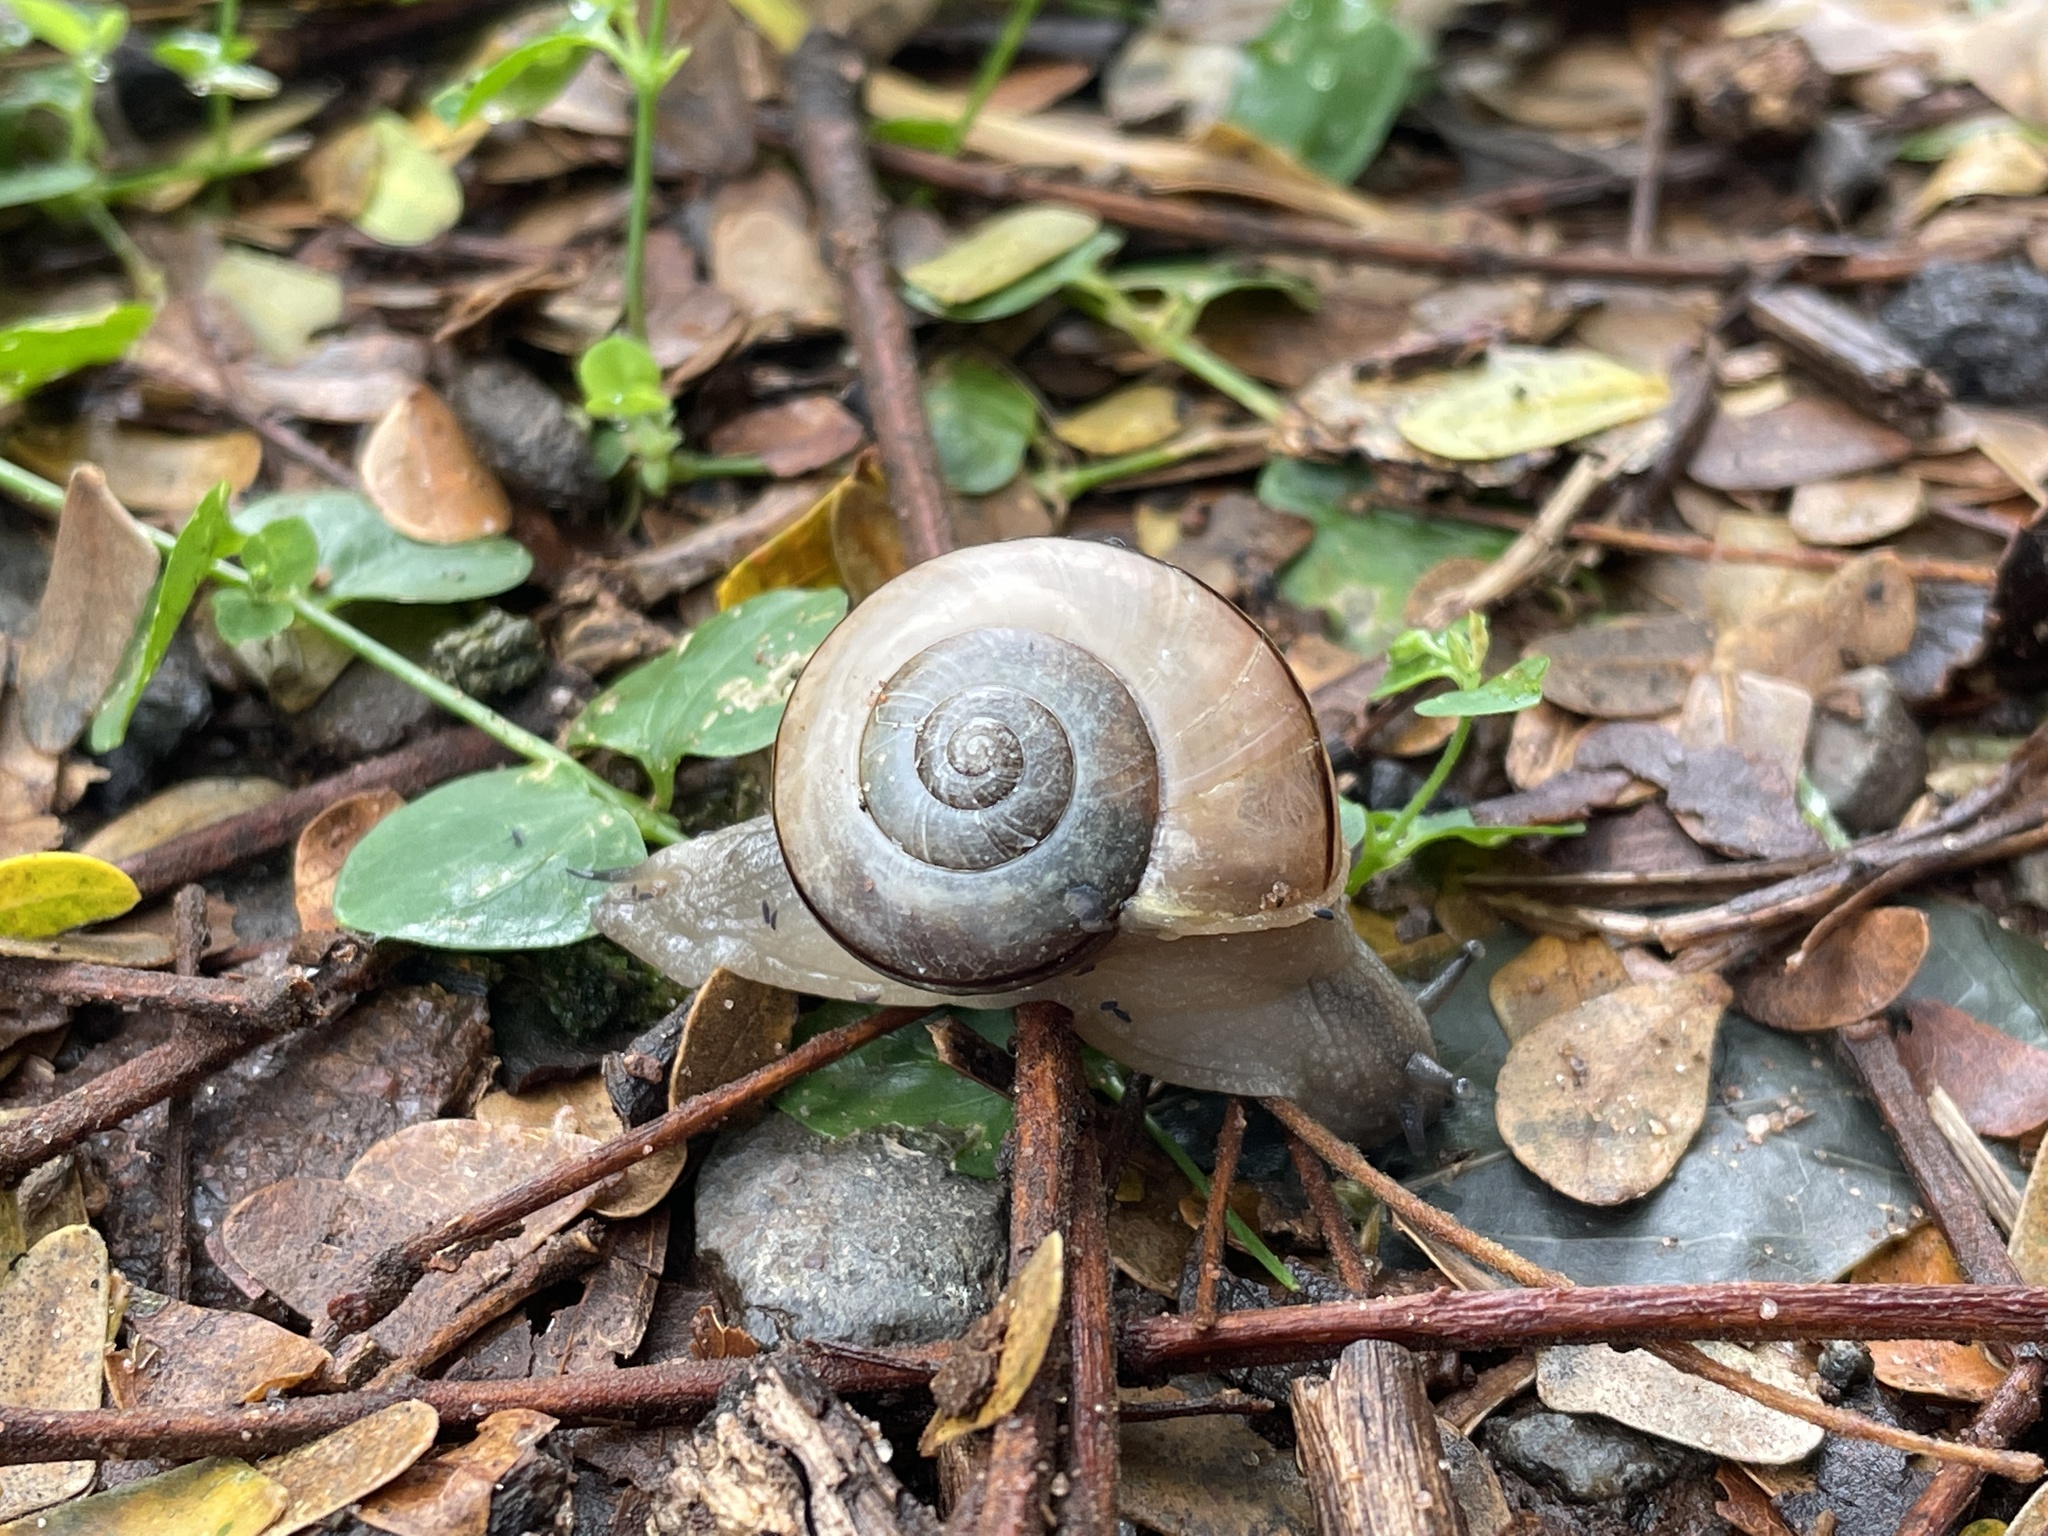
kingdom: Animalia
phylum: Mollusca
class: Gastropoda
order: Stylommatophora
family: Urocyclidae
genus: Kerkophorus
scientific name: Kerkophorus inunctus
